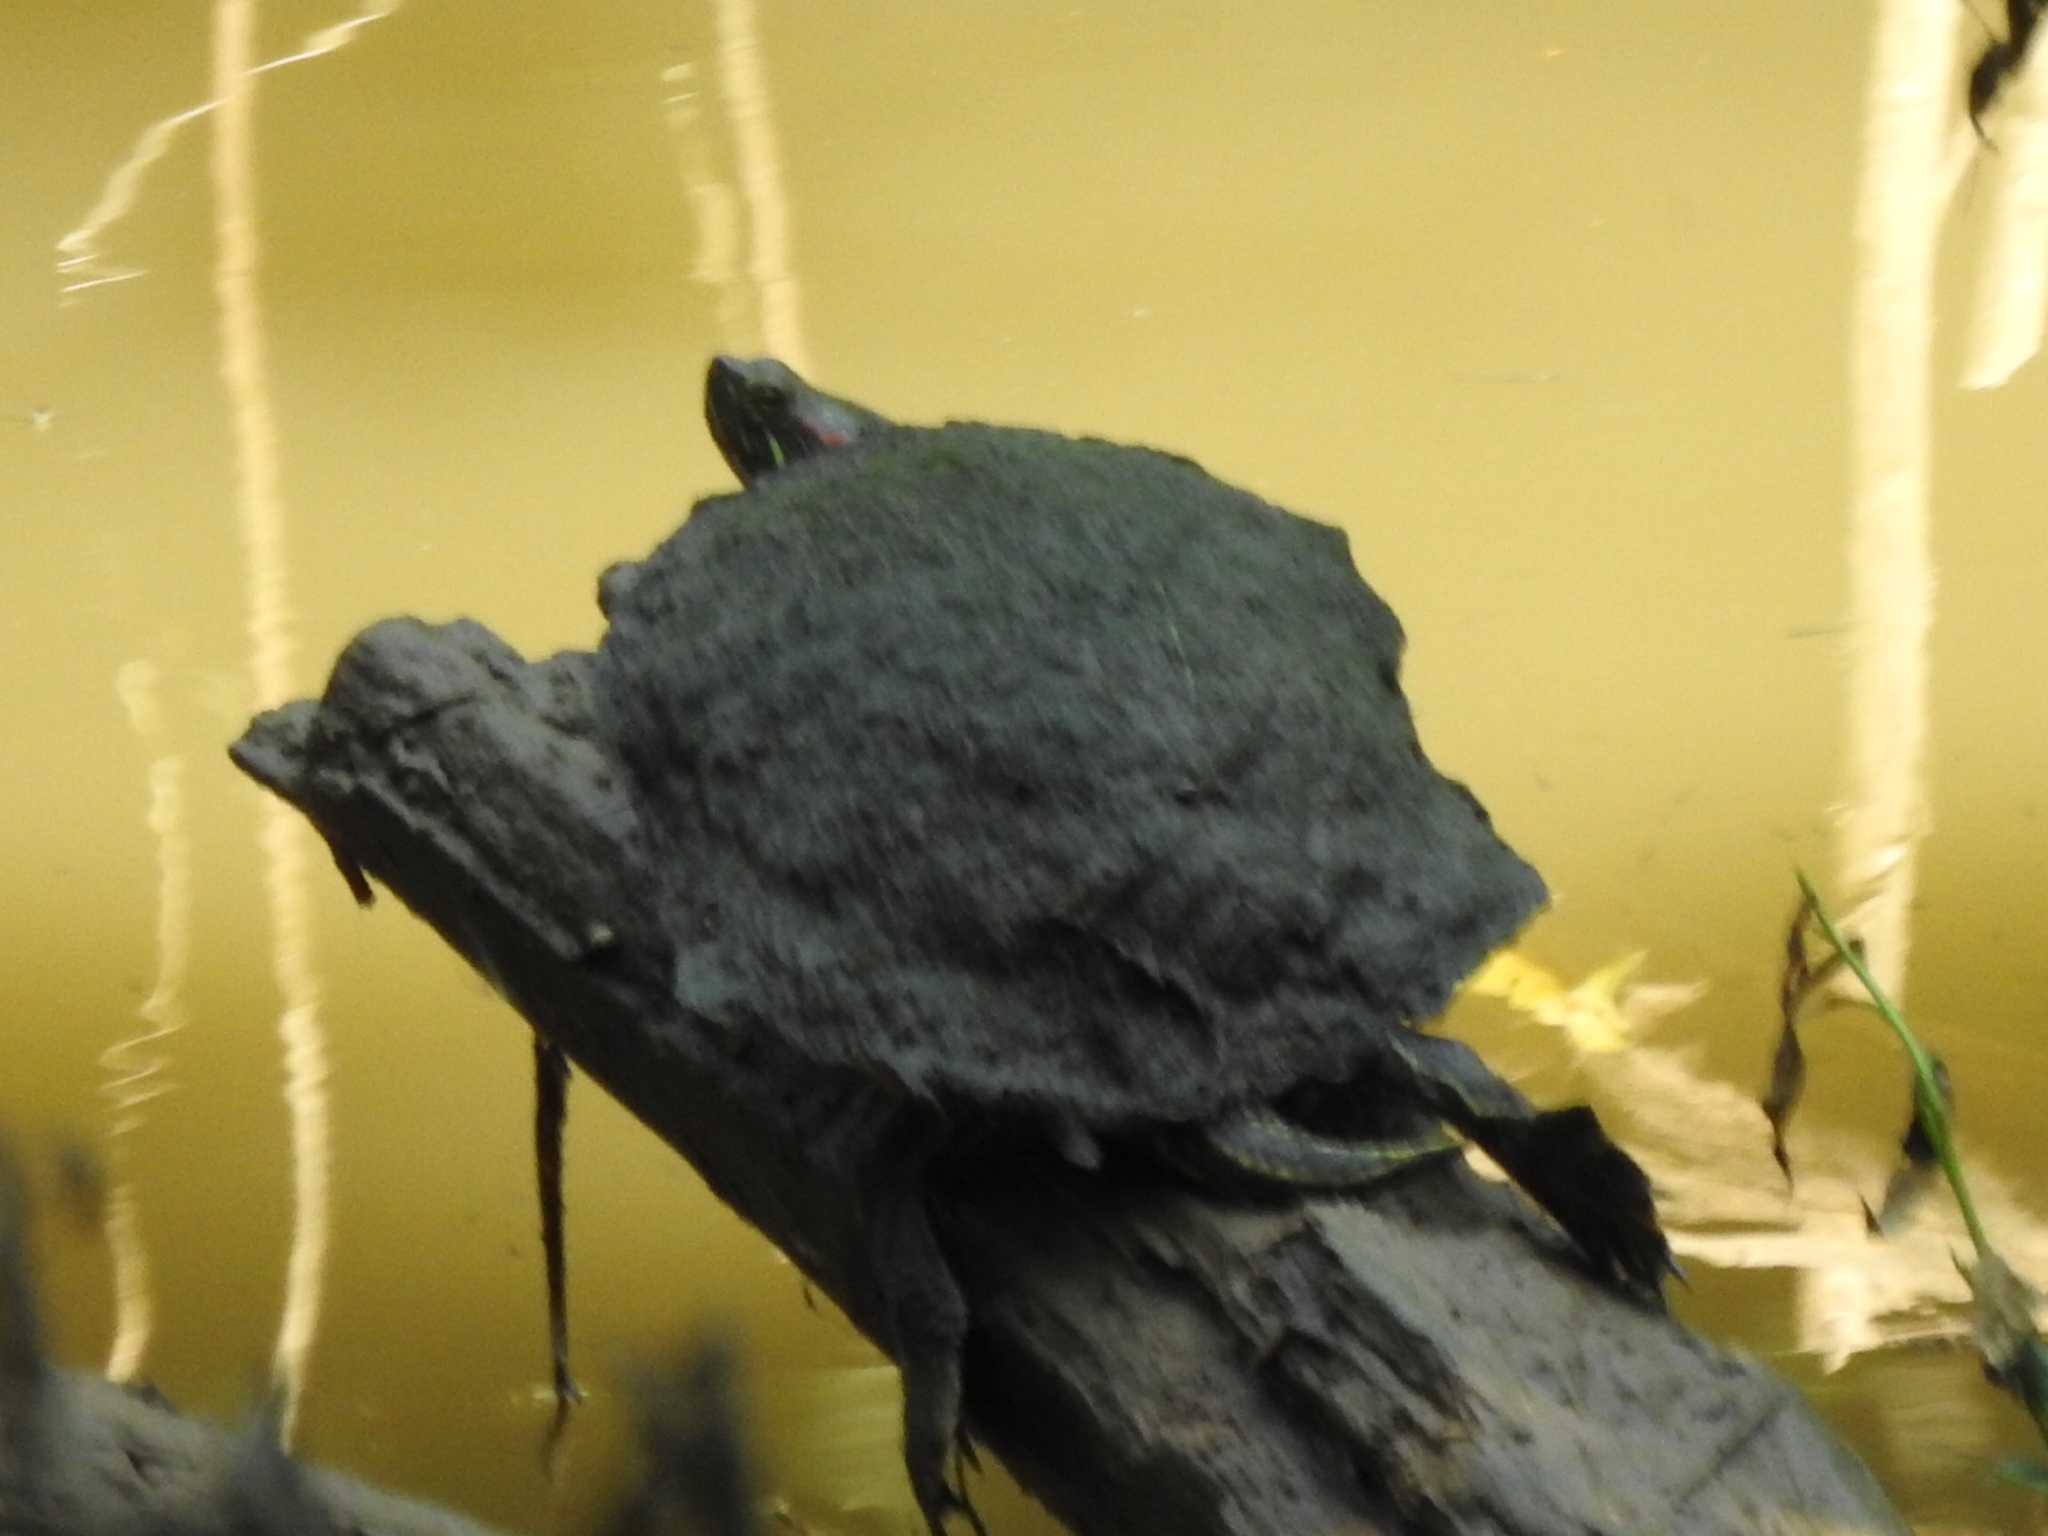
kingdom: Animalia
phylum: Chordata
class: Testudines
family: Emydidae
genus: Trachemys
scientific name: Trachemys scripta
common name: Slider
